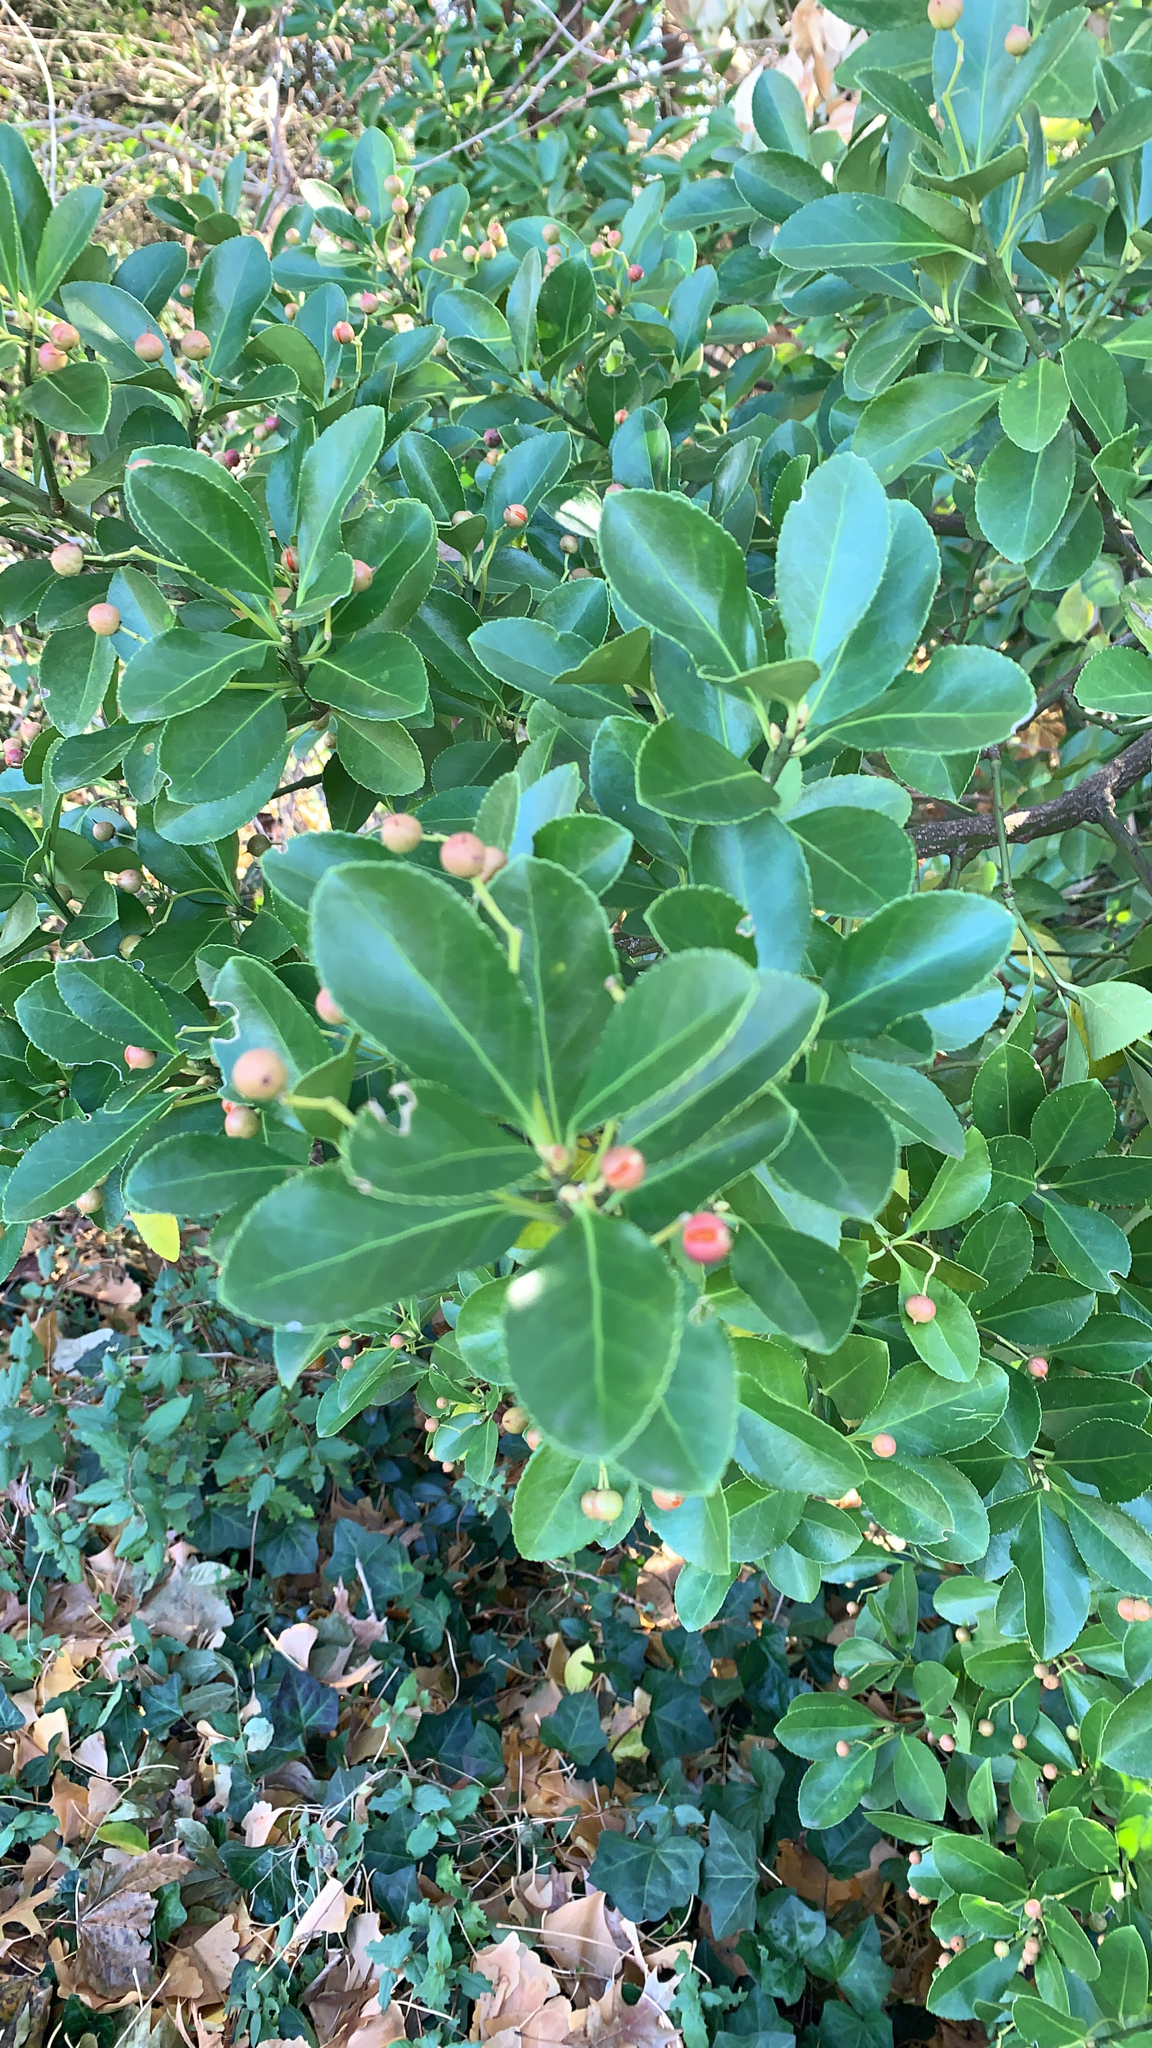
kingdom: Plantae
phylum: Tracheophyta
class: Magnoliopsida
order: Celastrales
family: Celastraceae
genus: Euonymus
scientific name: Euonymus japonicus
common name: Japanese spindletree
